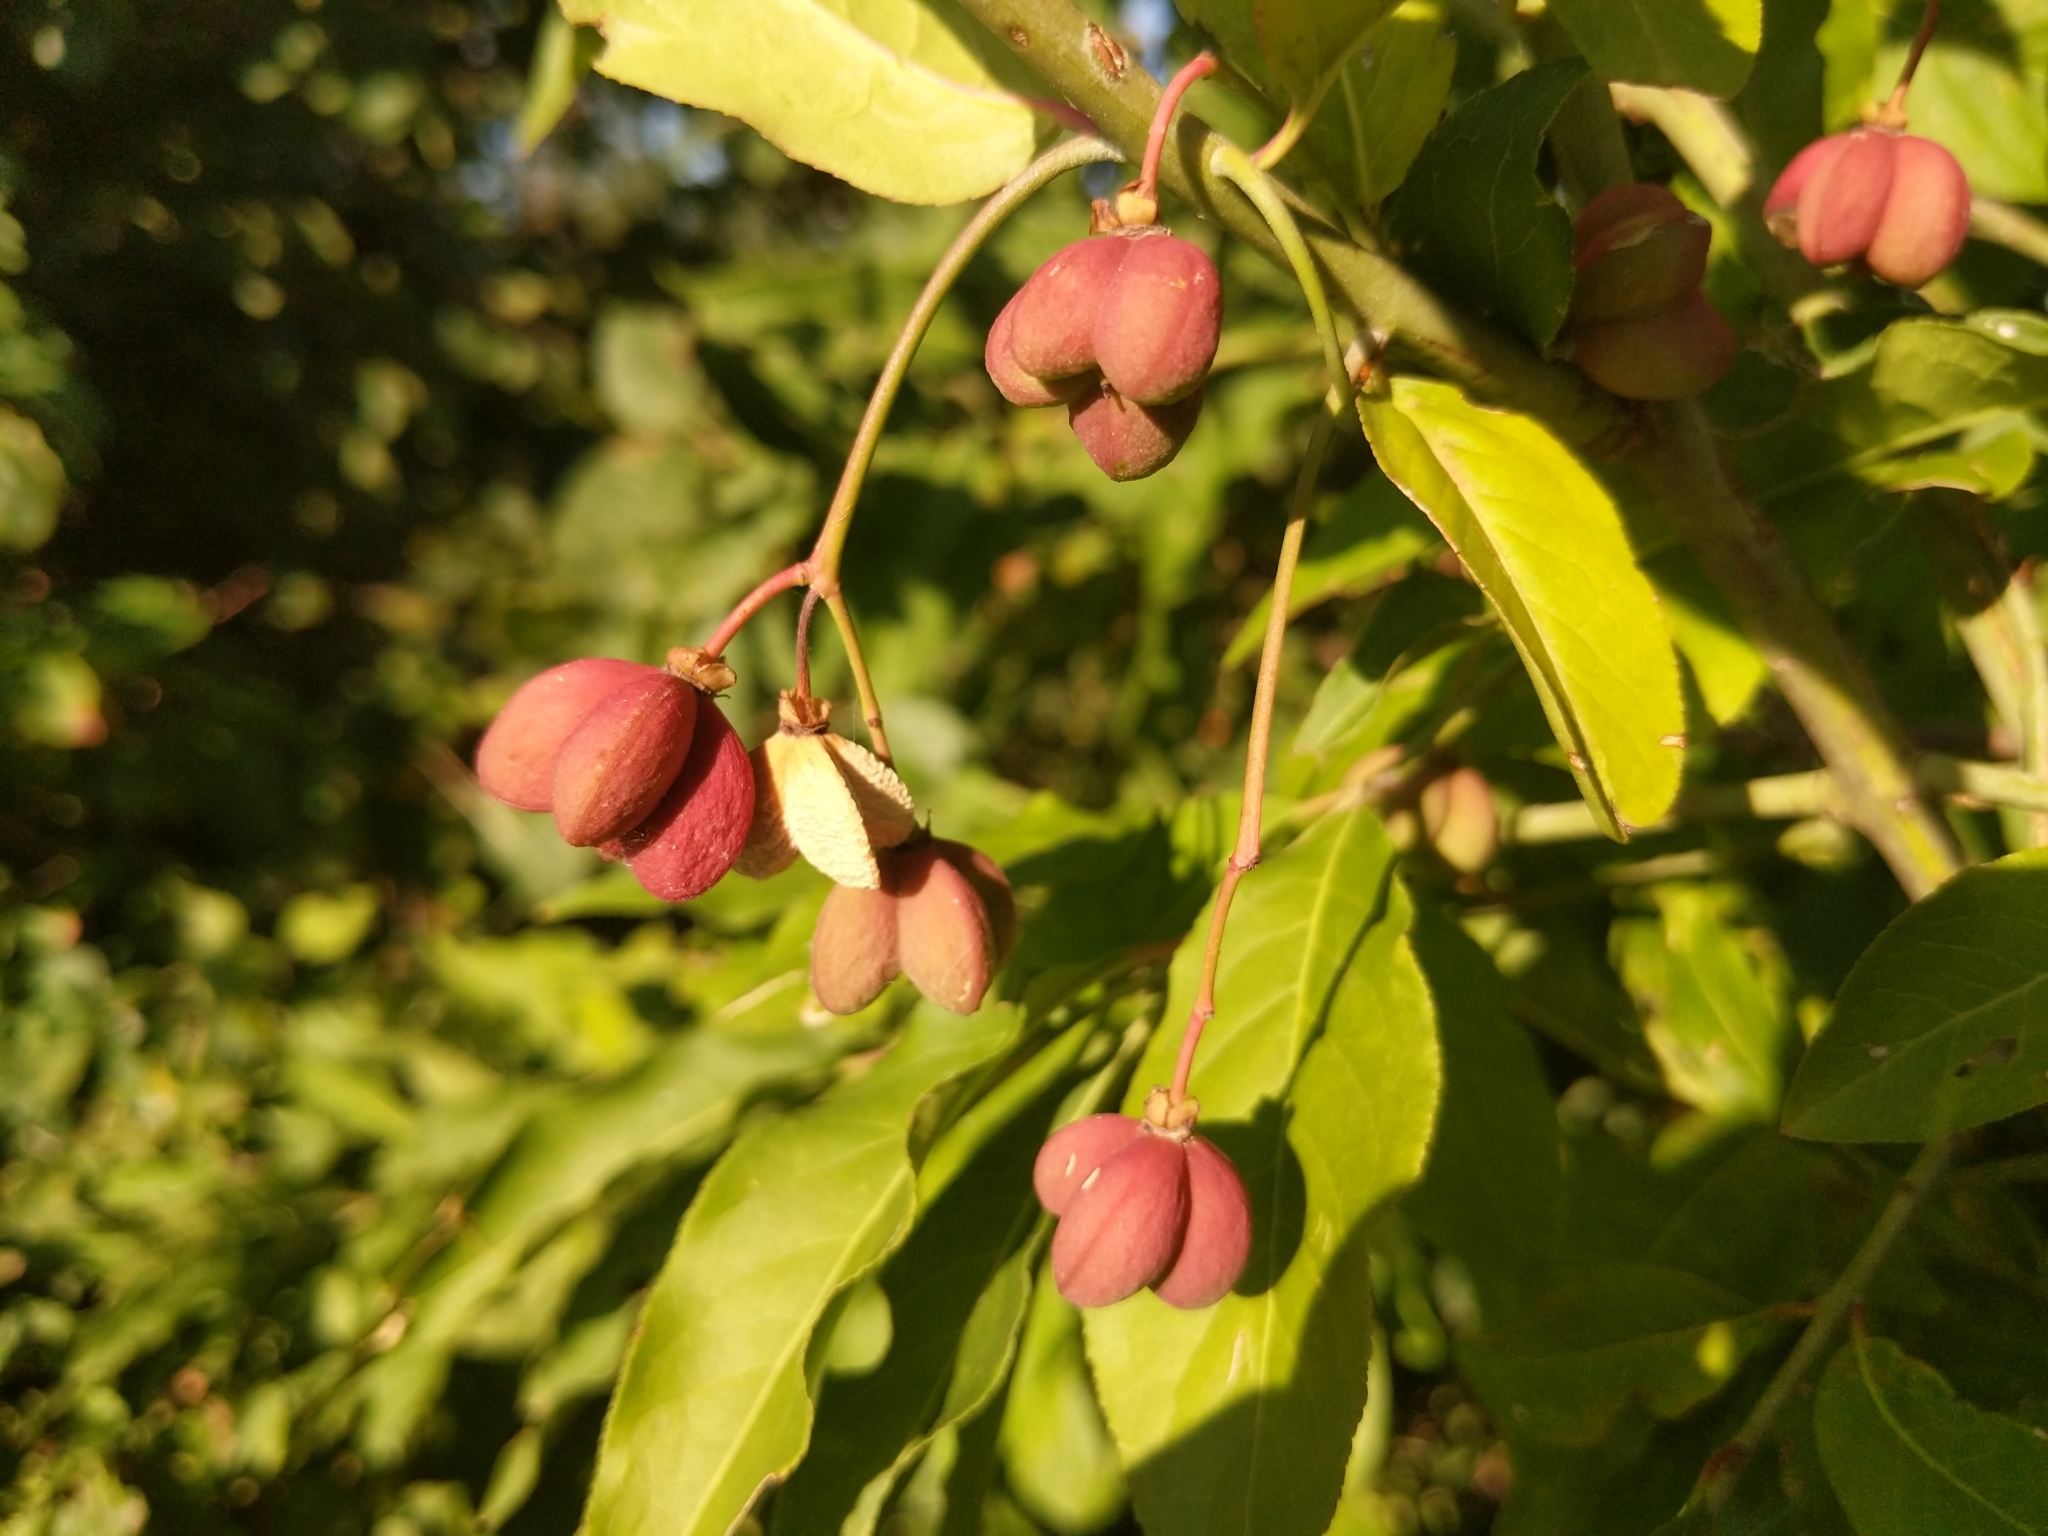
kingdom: Plantae
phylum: Tracheophyta
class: Magnoliopsida
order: Celastrales
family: Celastraceae
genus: Euonymus
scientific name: Euonymus europaeus
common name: Spindle
